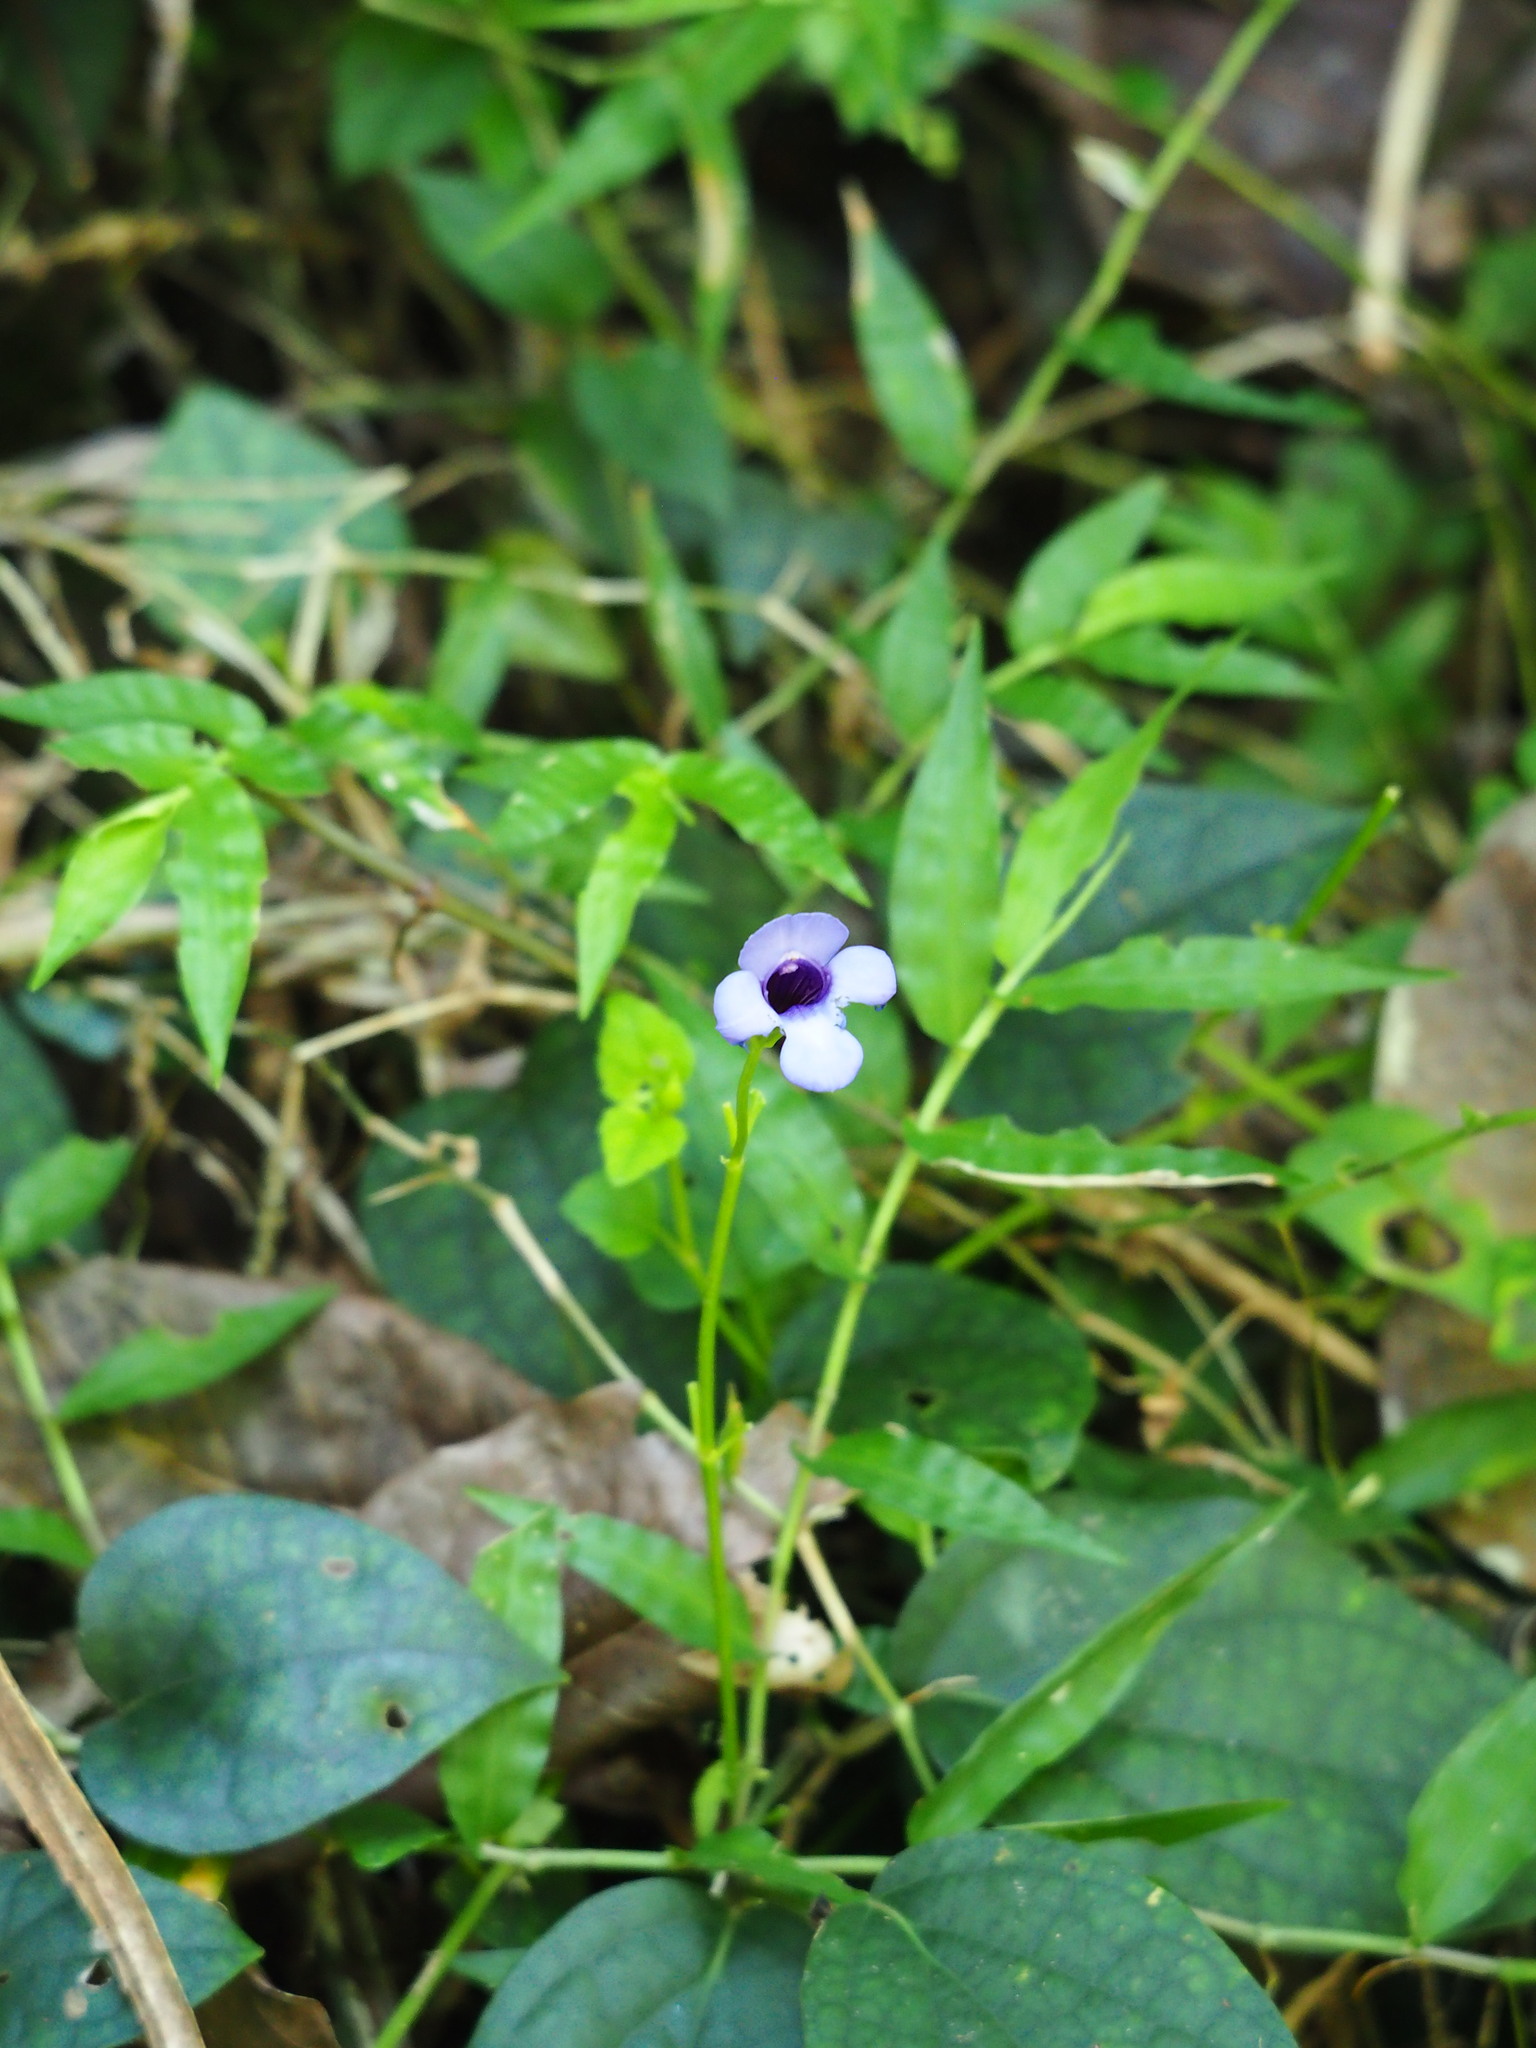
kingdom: Plantae
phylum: Tracheophyta
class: Magnoliopsida
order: Lamiales
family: Linderniaceae
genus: Torenia
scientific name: Torenia concolor
